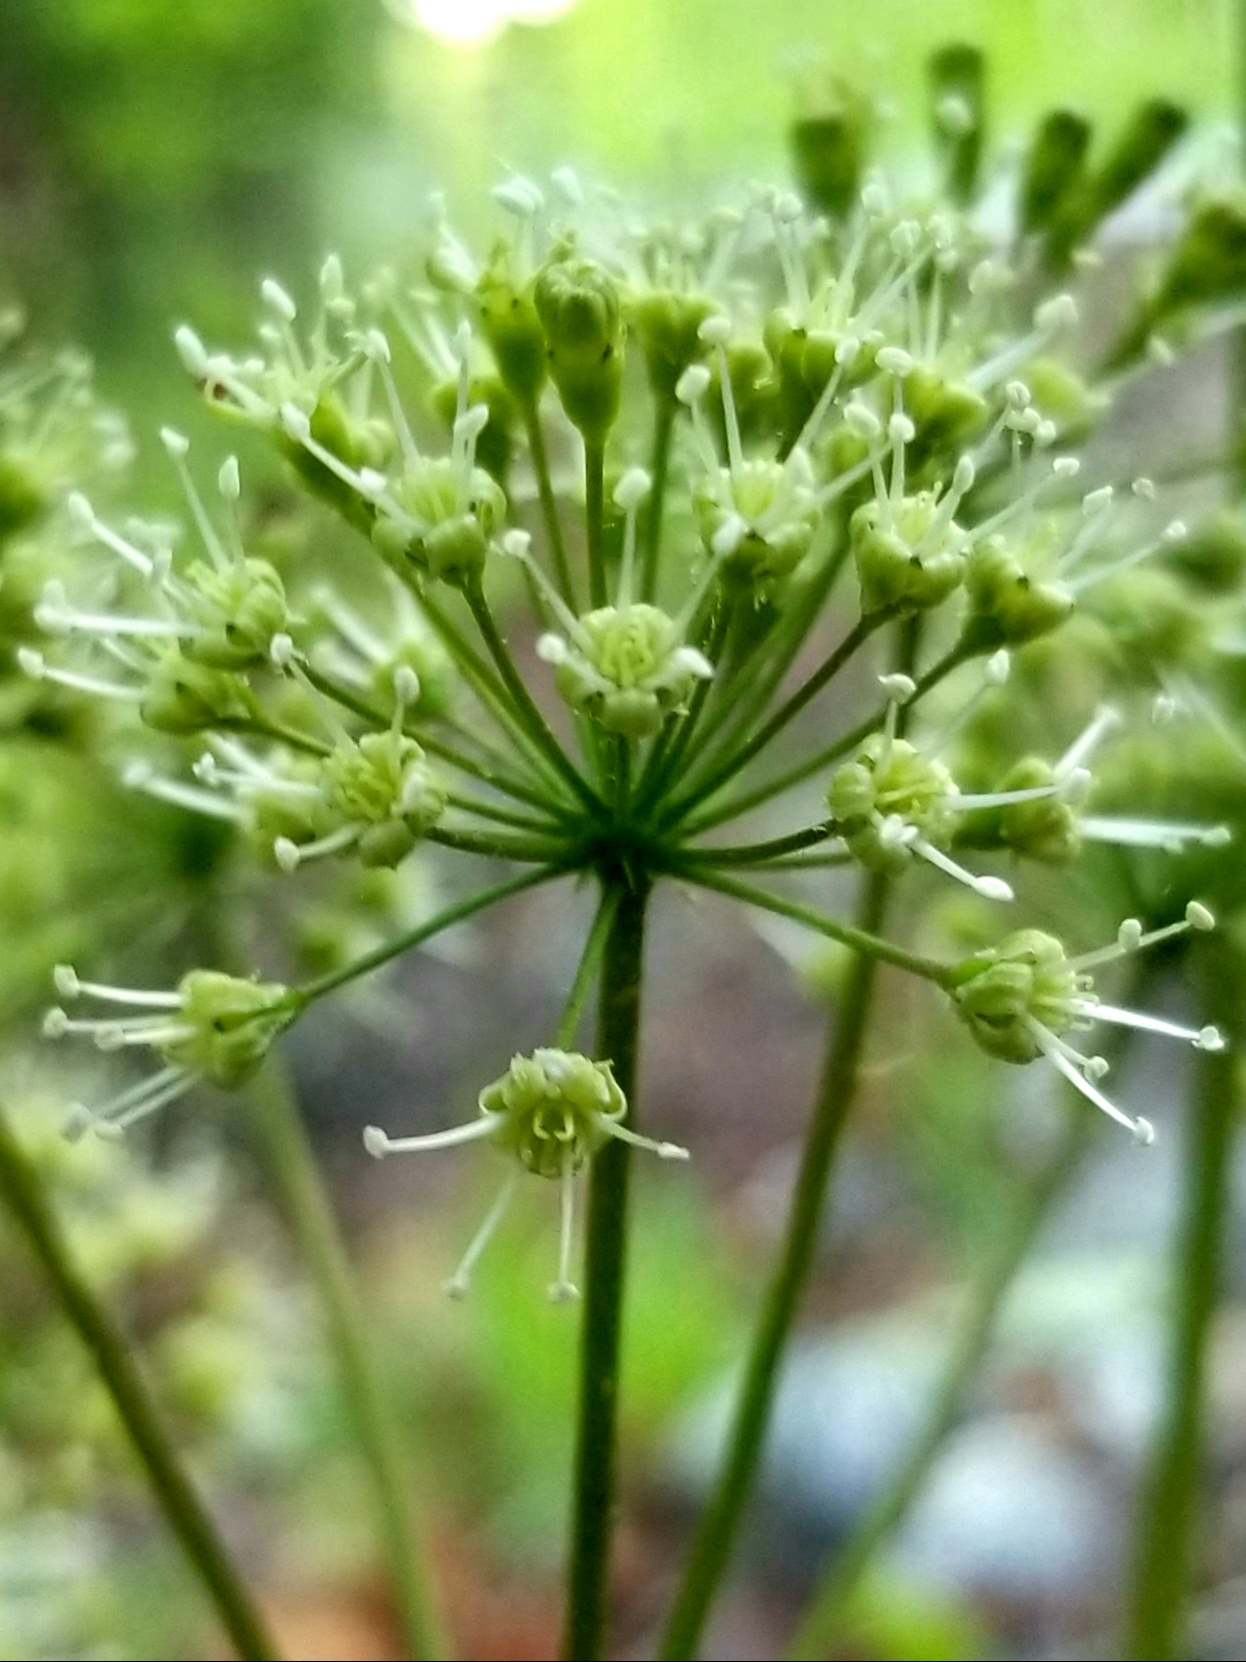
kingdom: Plantae
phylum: Tracheophyta
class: Magnoliopsida
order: Apiales
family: Araliaceae
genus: Aralia
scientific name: Aralia nudicaulis
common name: Wild sarsaparilla
